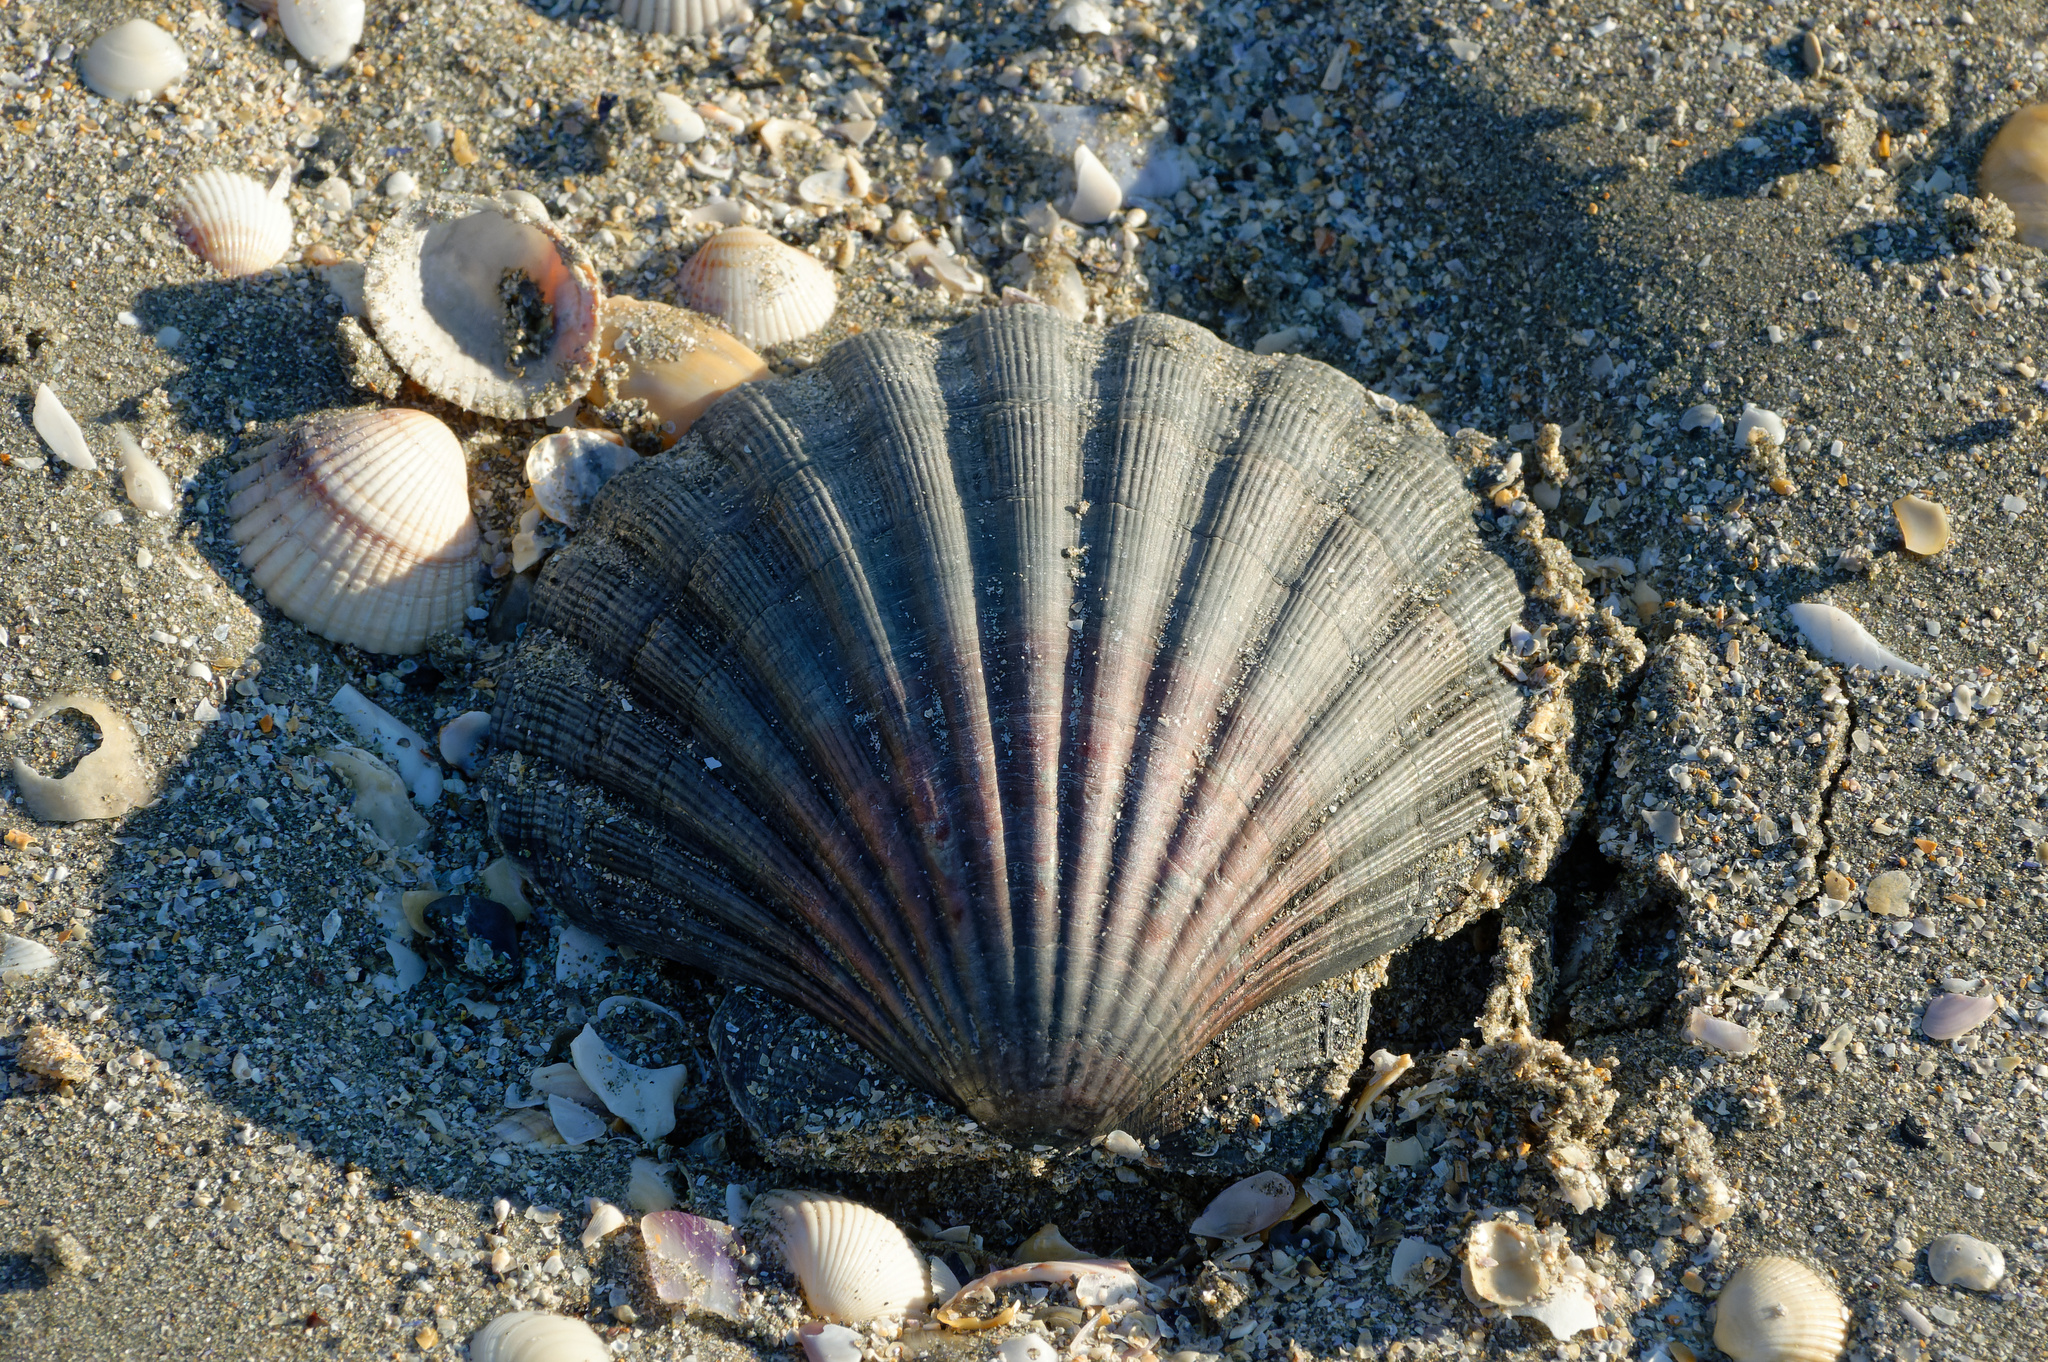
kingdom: Animalia
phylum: Mollusca
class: Bivalvia
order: Pectinida
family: Pectinidae
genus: Pecten
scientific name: Pecten maximus
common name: Great scallop
